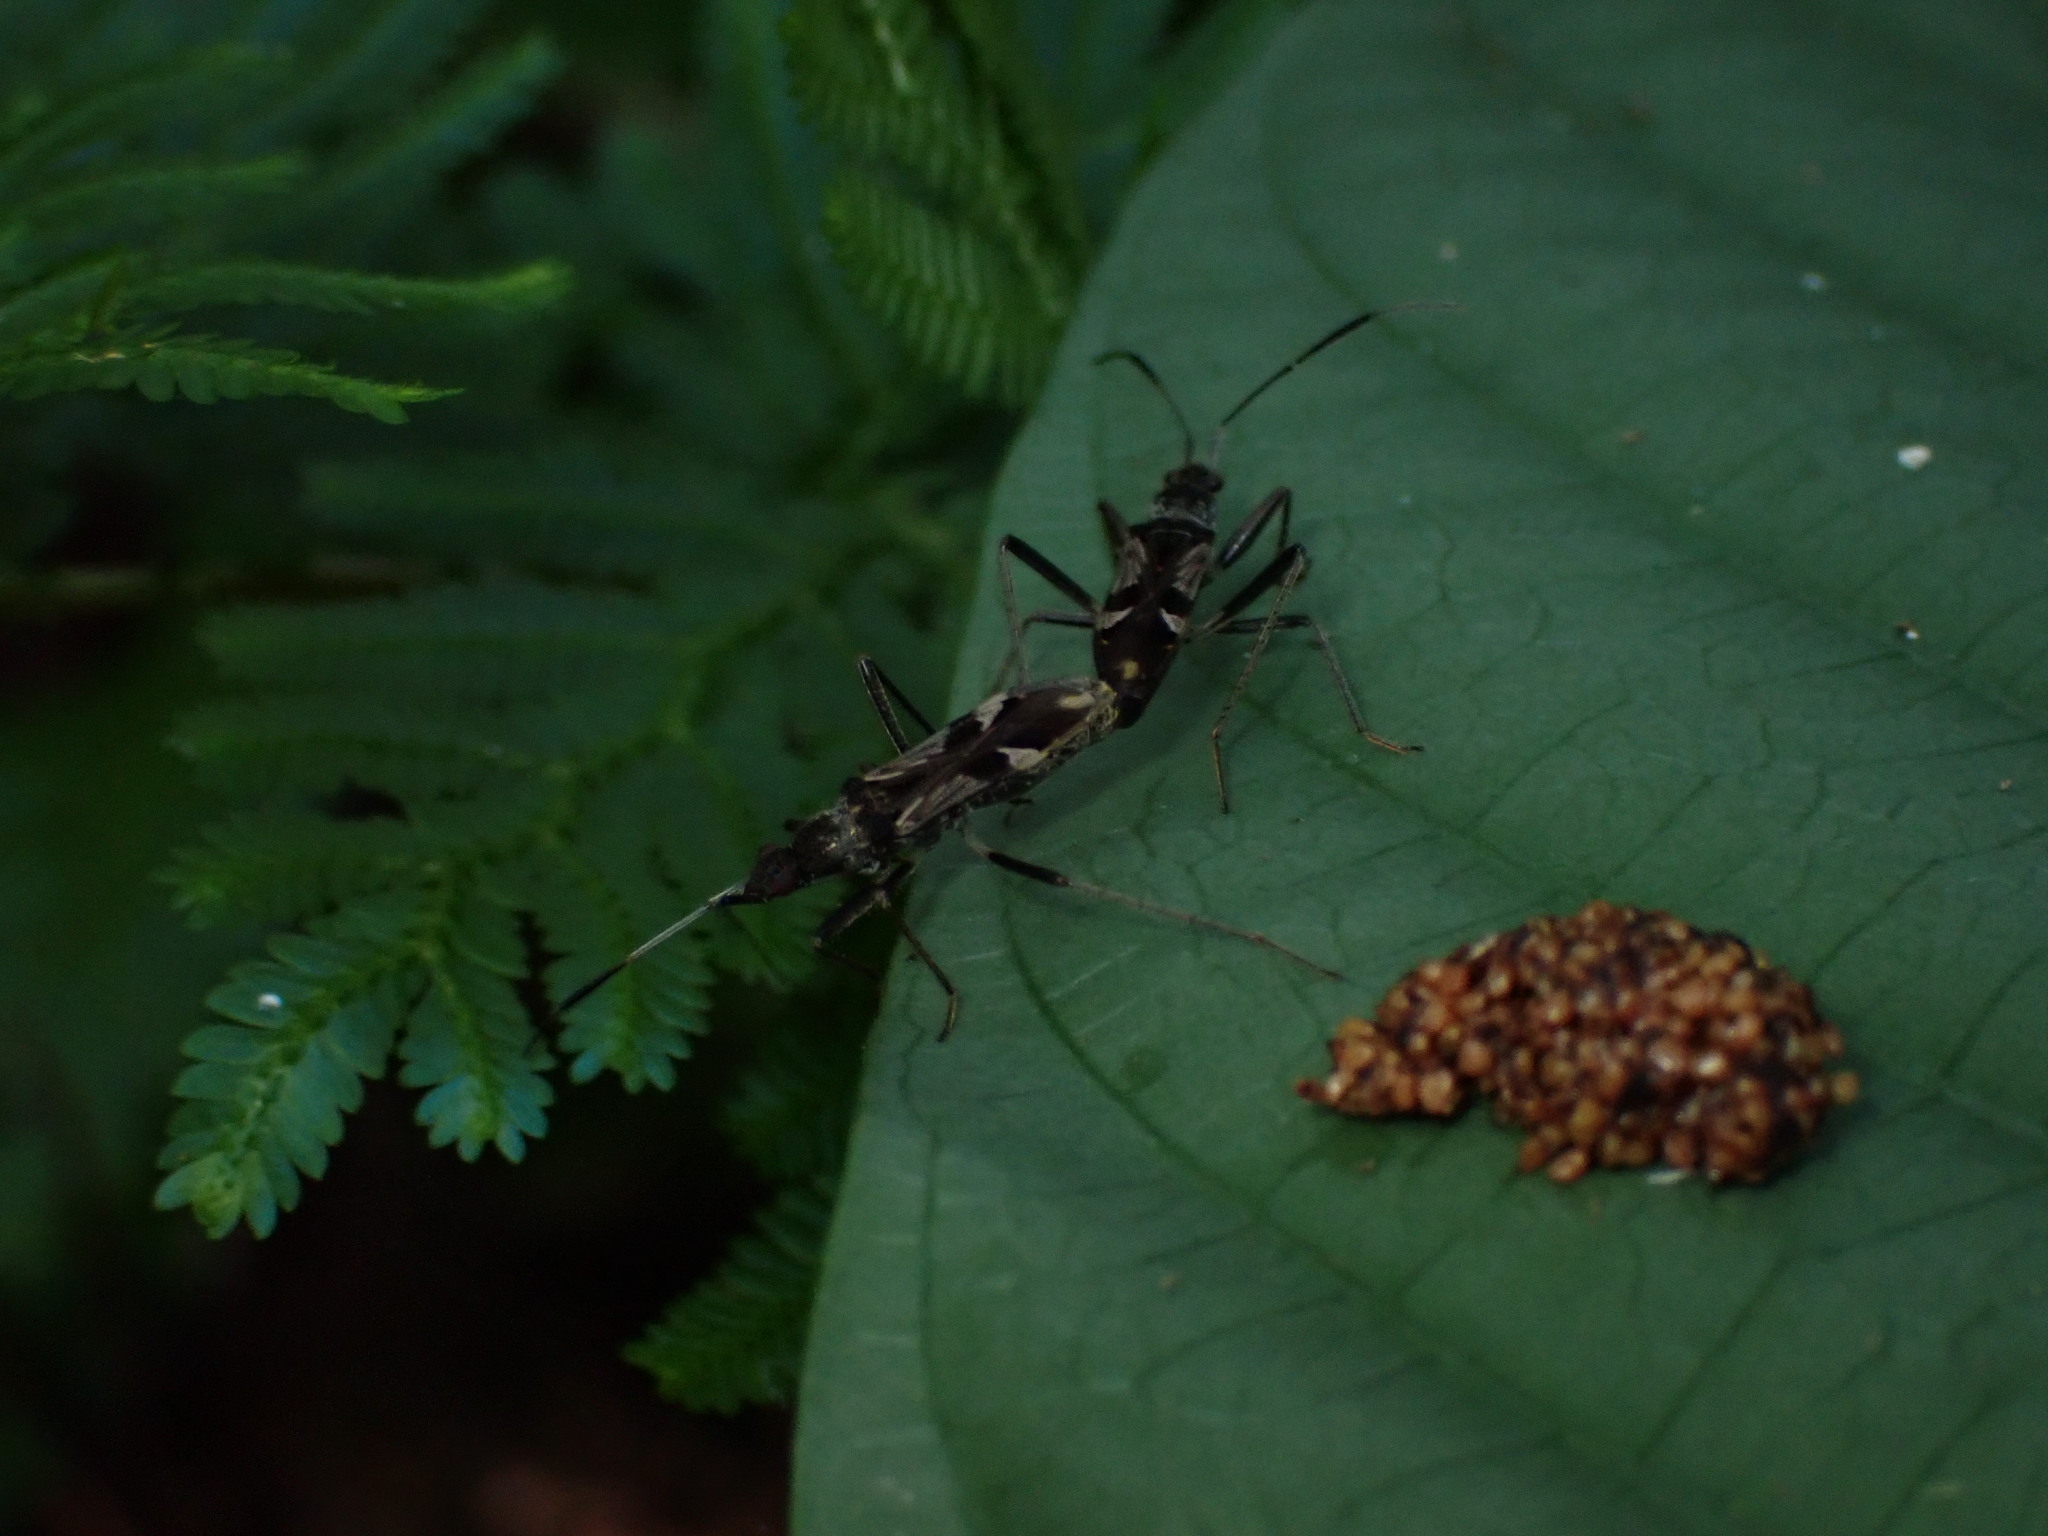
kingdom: Animalia
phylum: Arthropoda
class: Insecta
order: Hemiptera
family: Rhyparochromidae
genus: Metochus
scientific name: Metochus schultheissi
